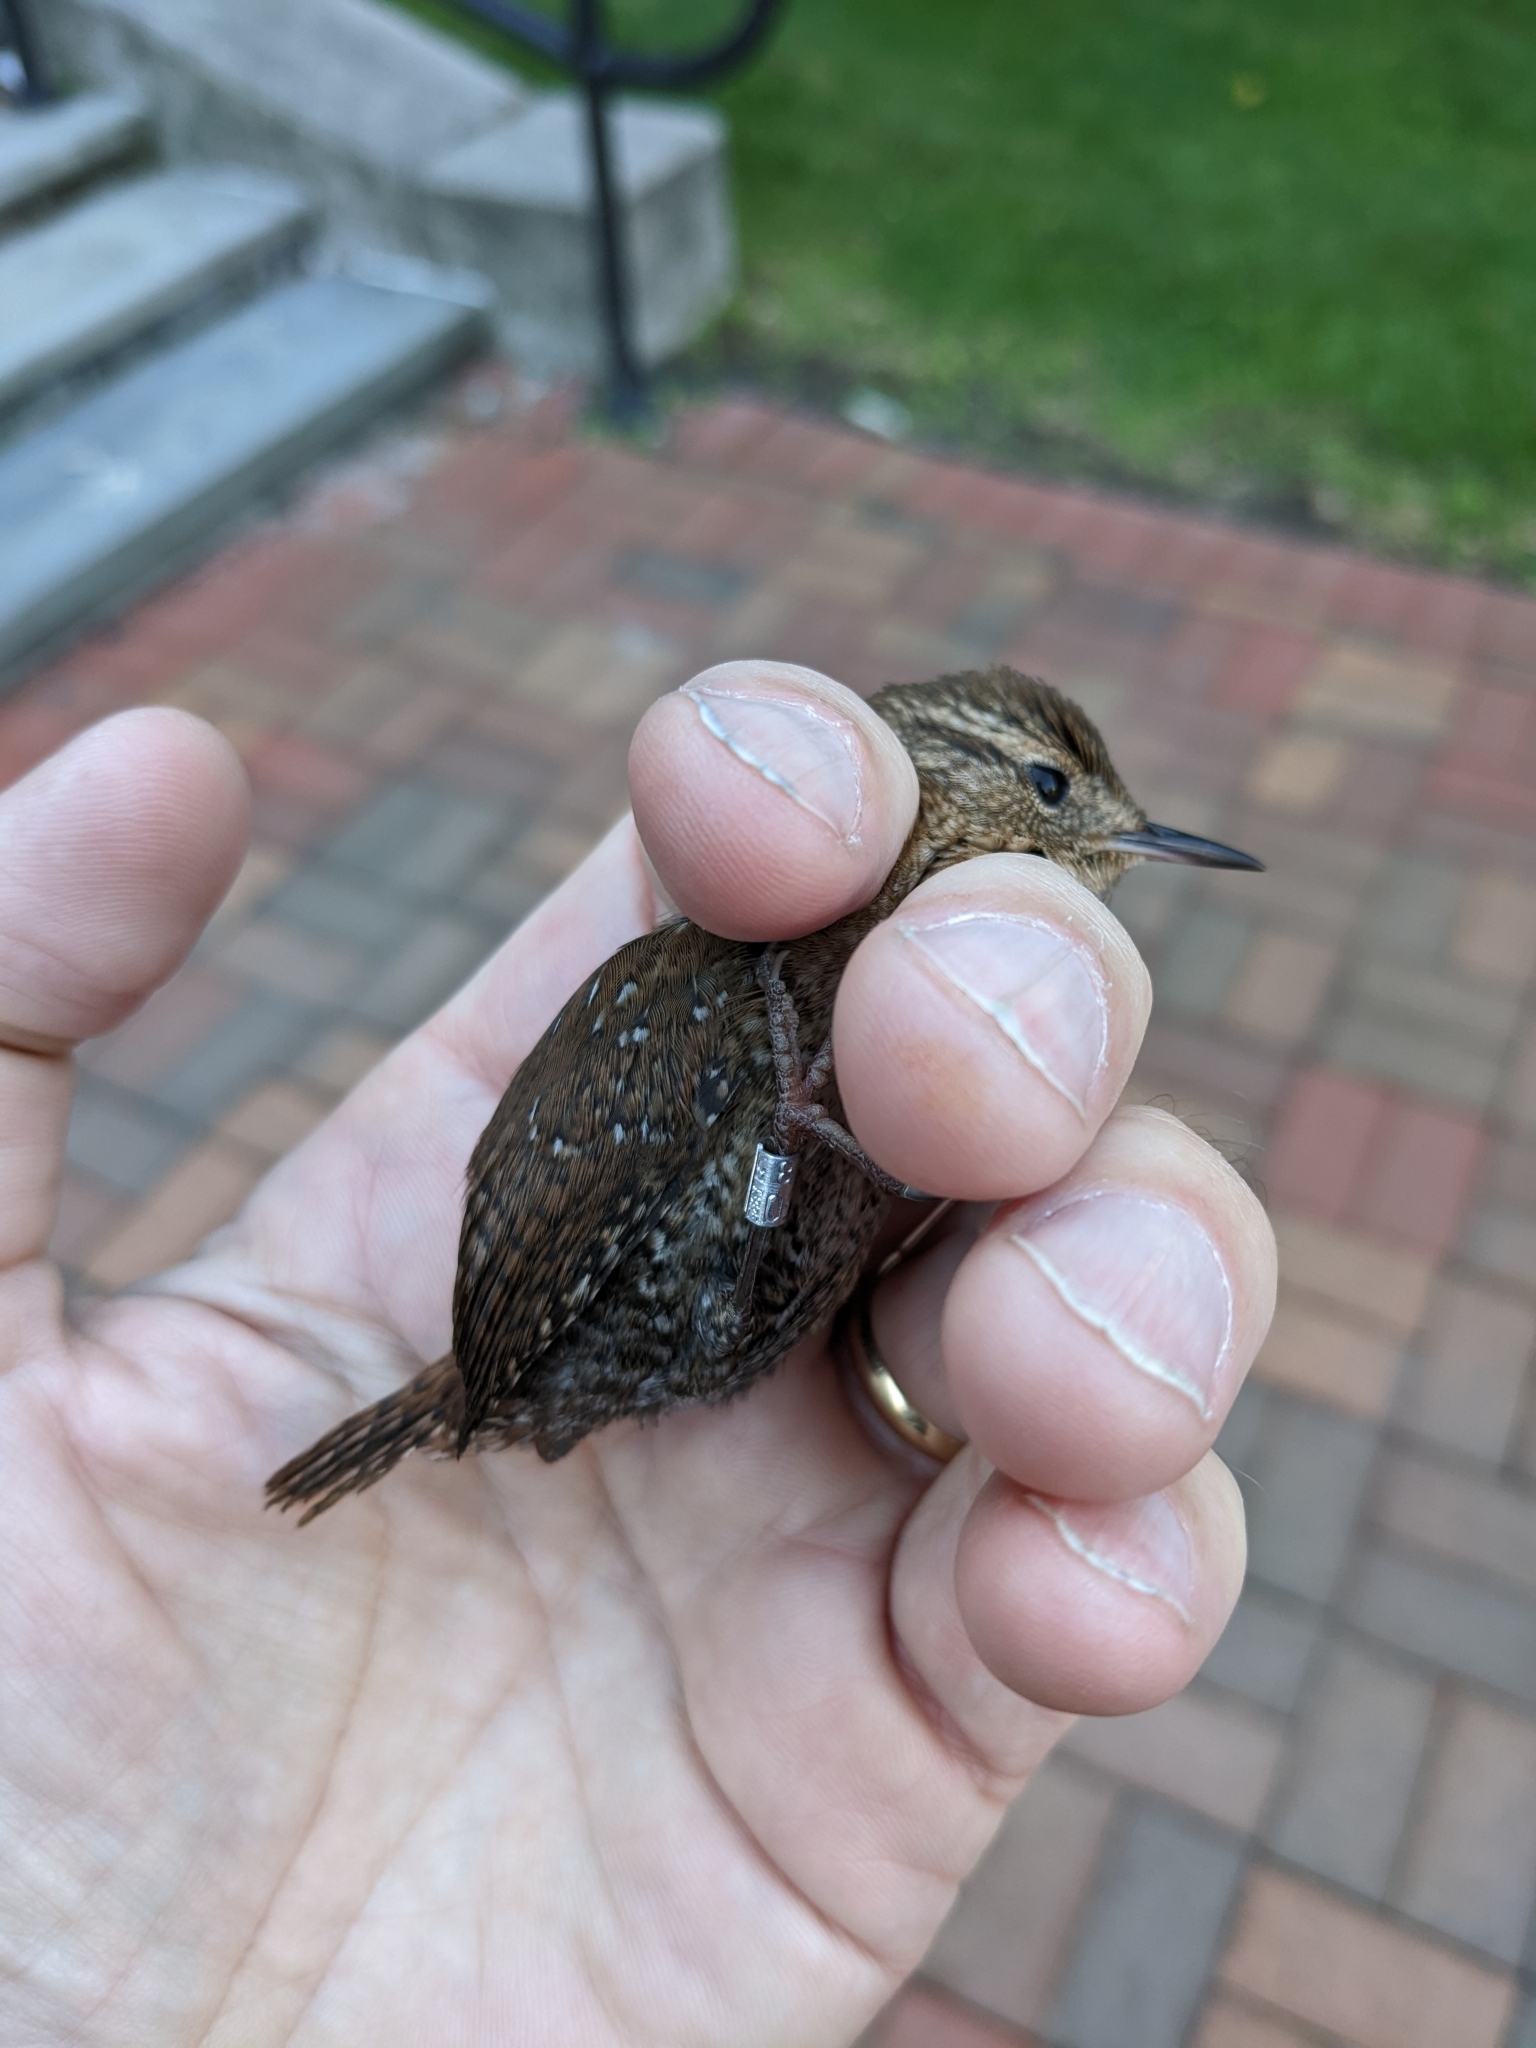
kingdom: Animalia
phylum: Chordata
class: Aves
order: Passeriformes
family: Troglodytidae
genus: Troglodytes
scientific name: Troglodytes hiemalis
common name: Winter wren
